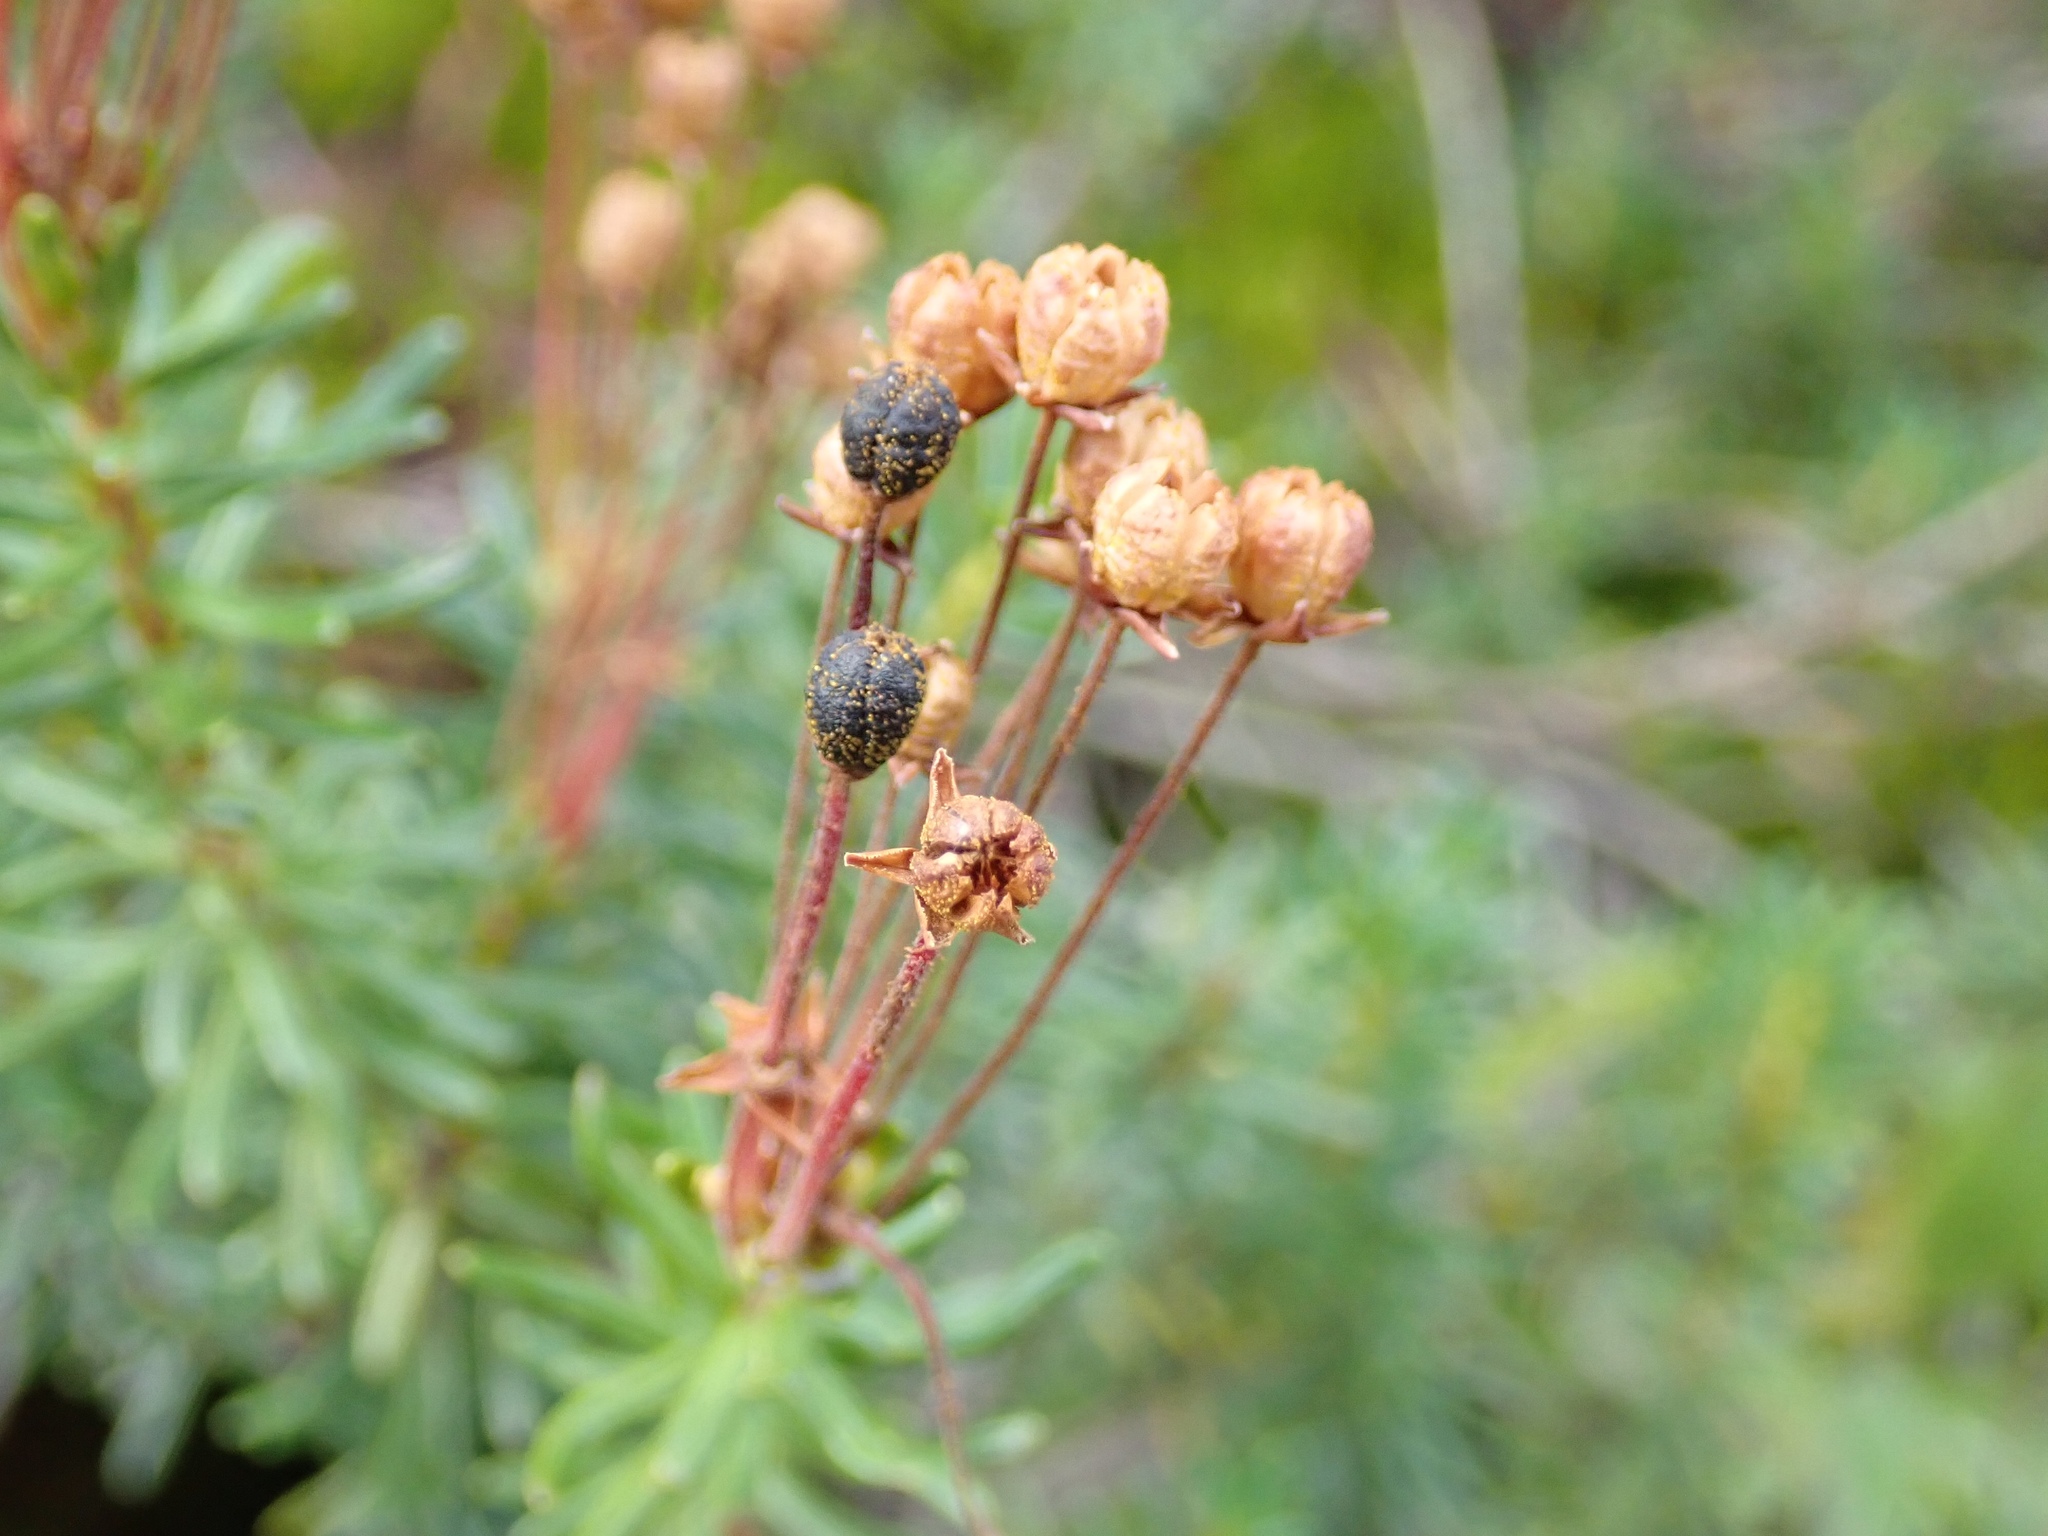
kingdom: Plantae
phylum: Tracheophyta
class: Magnoliopsida
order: Ericales
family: Ericaceae
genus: Phyllodoce
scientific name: Phyllodoce empetriformis
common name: Pink mountain heather
